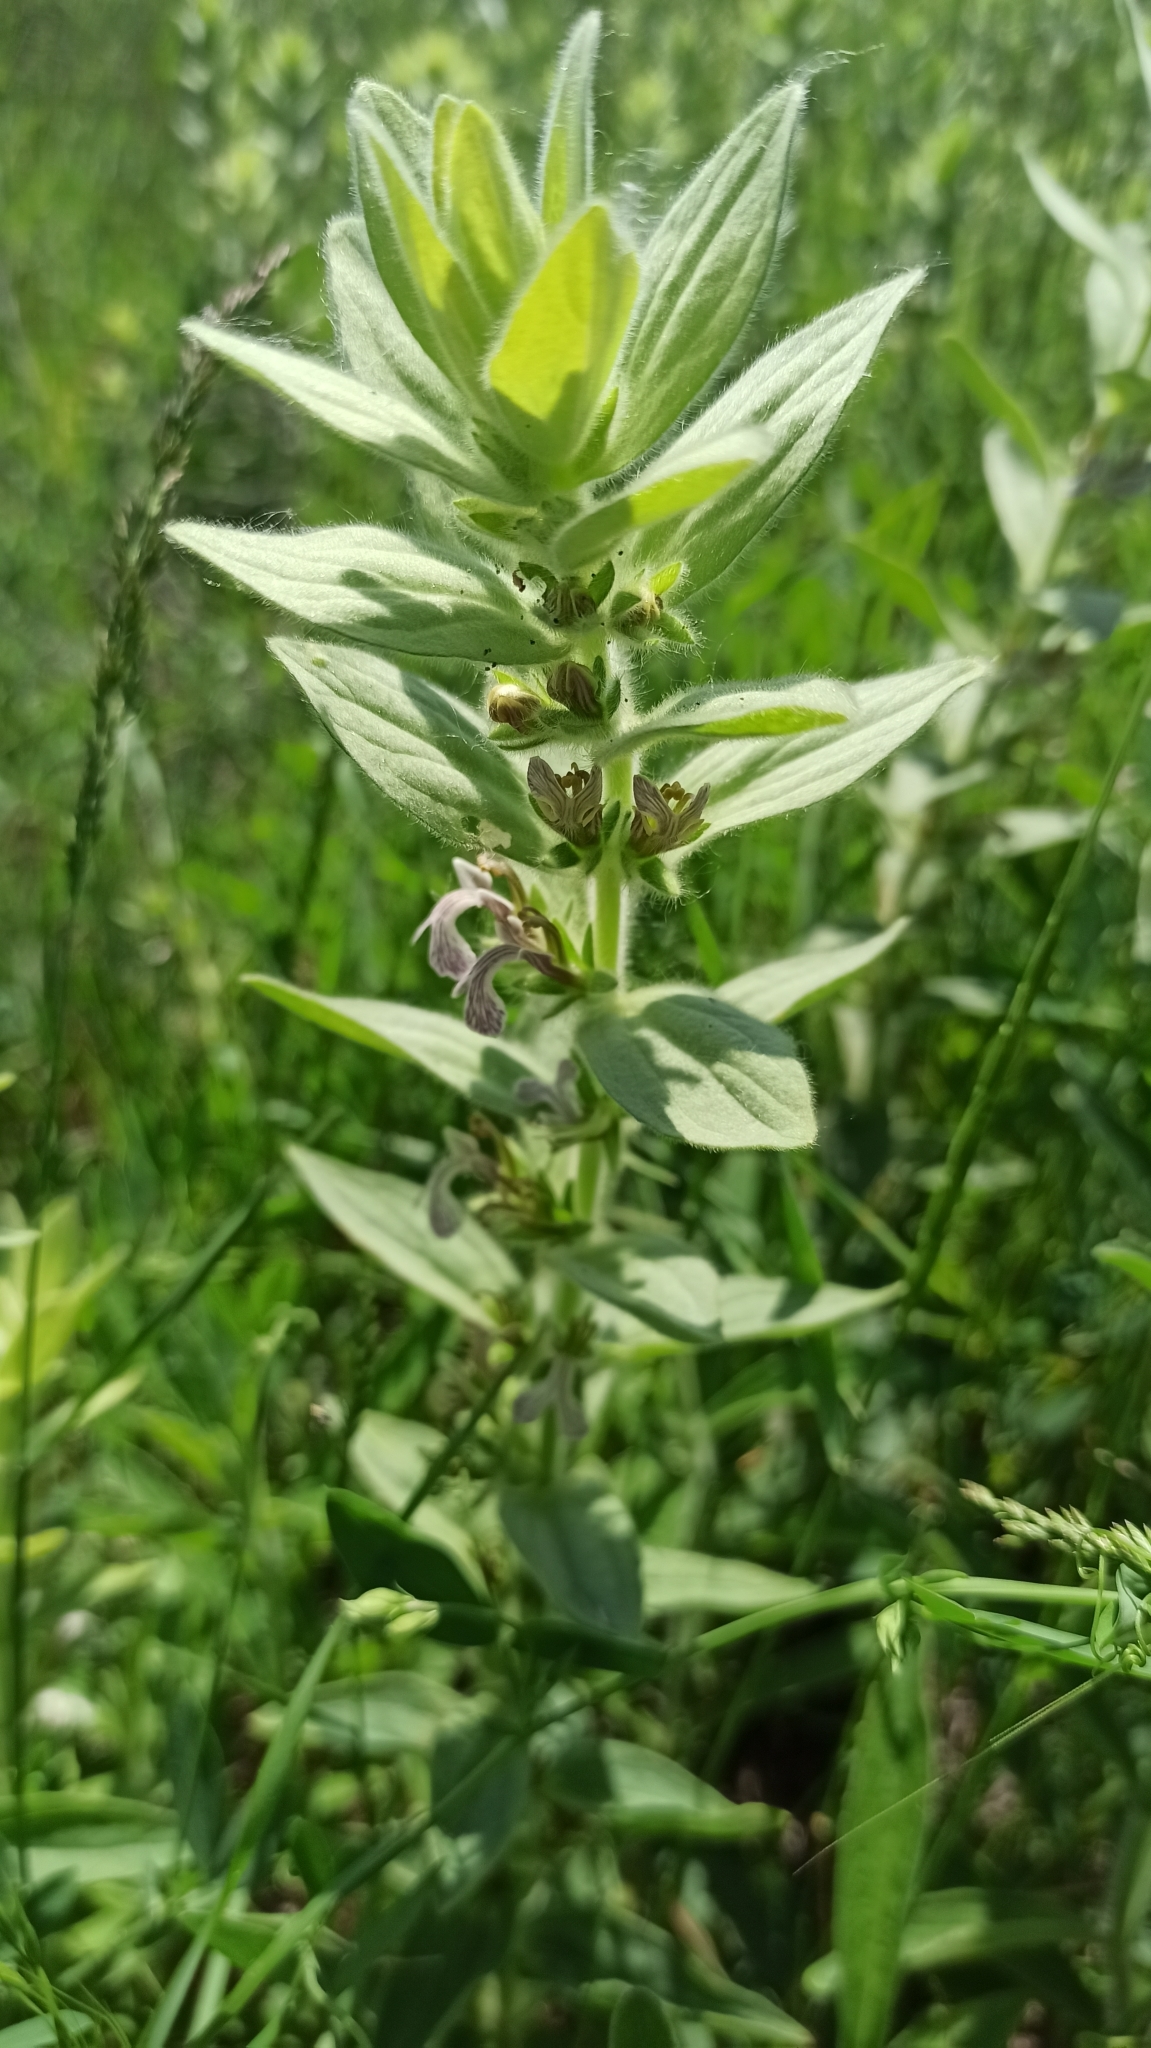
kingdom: Plantae
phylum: Tracheophyta
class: Magnoliopsida
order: Lamiales
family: Lamiaceae
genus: Ajuga
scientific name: Ajuga laxmannii
